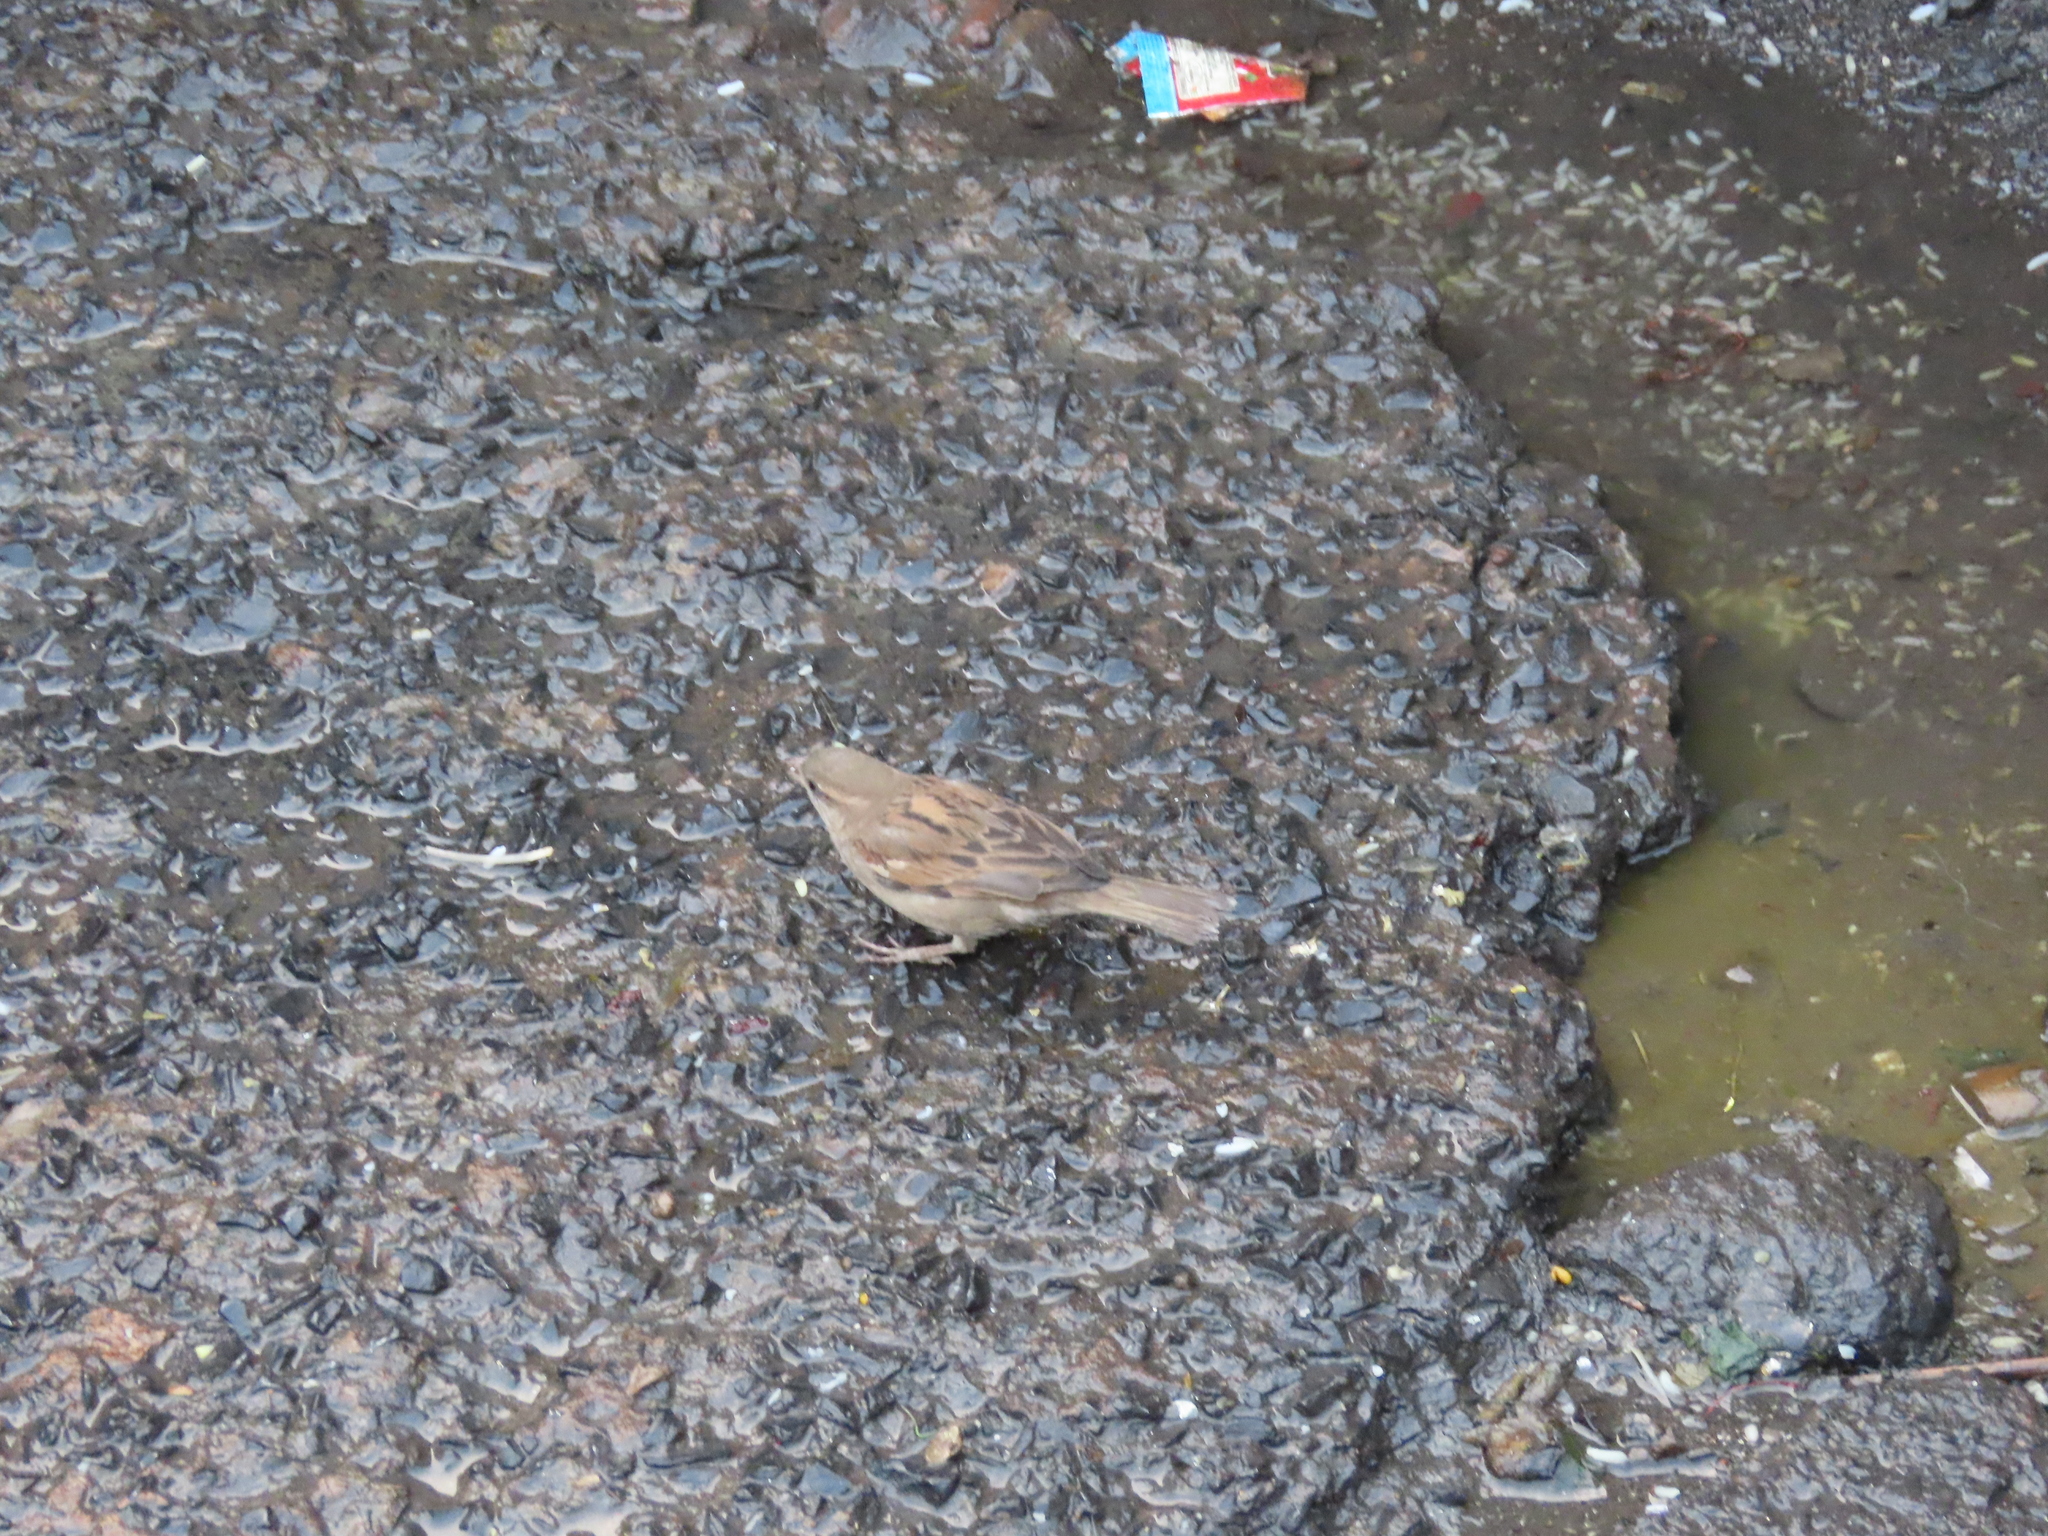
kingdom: Animalia
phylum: Chordata
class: Aves
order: Passeriformes
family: Passeridae
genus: Passer
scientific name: Passer domesticus
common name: House sparrow
